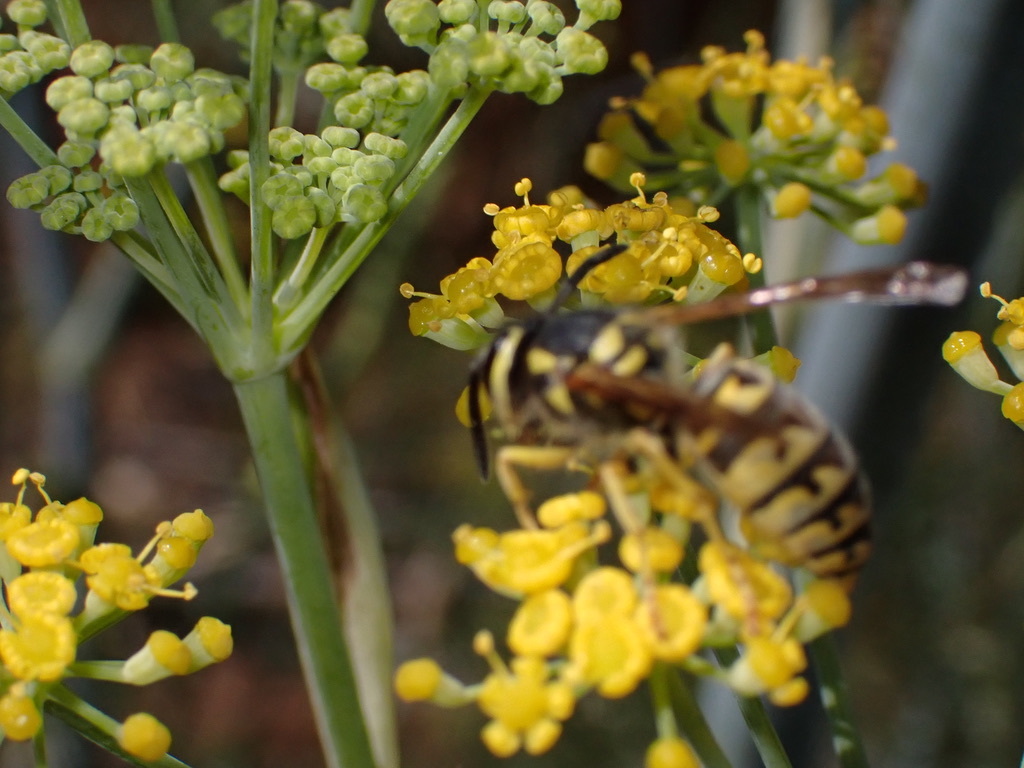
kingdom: Animalia
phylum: Arthropoda
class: Insecta
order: Hymenoptera
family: Vespidae
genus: Vespula
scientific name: Vespula pensylvanica
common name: Western yellowjacket
